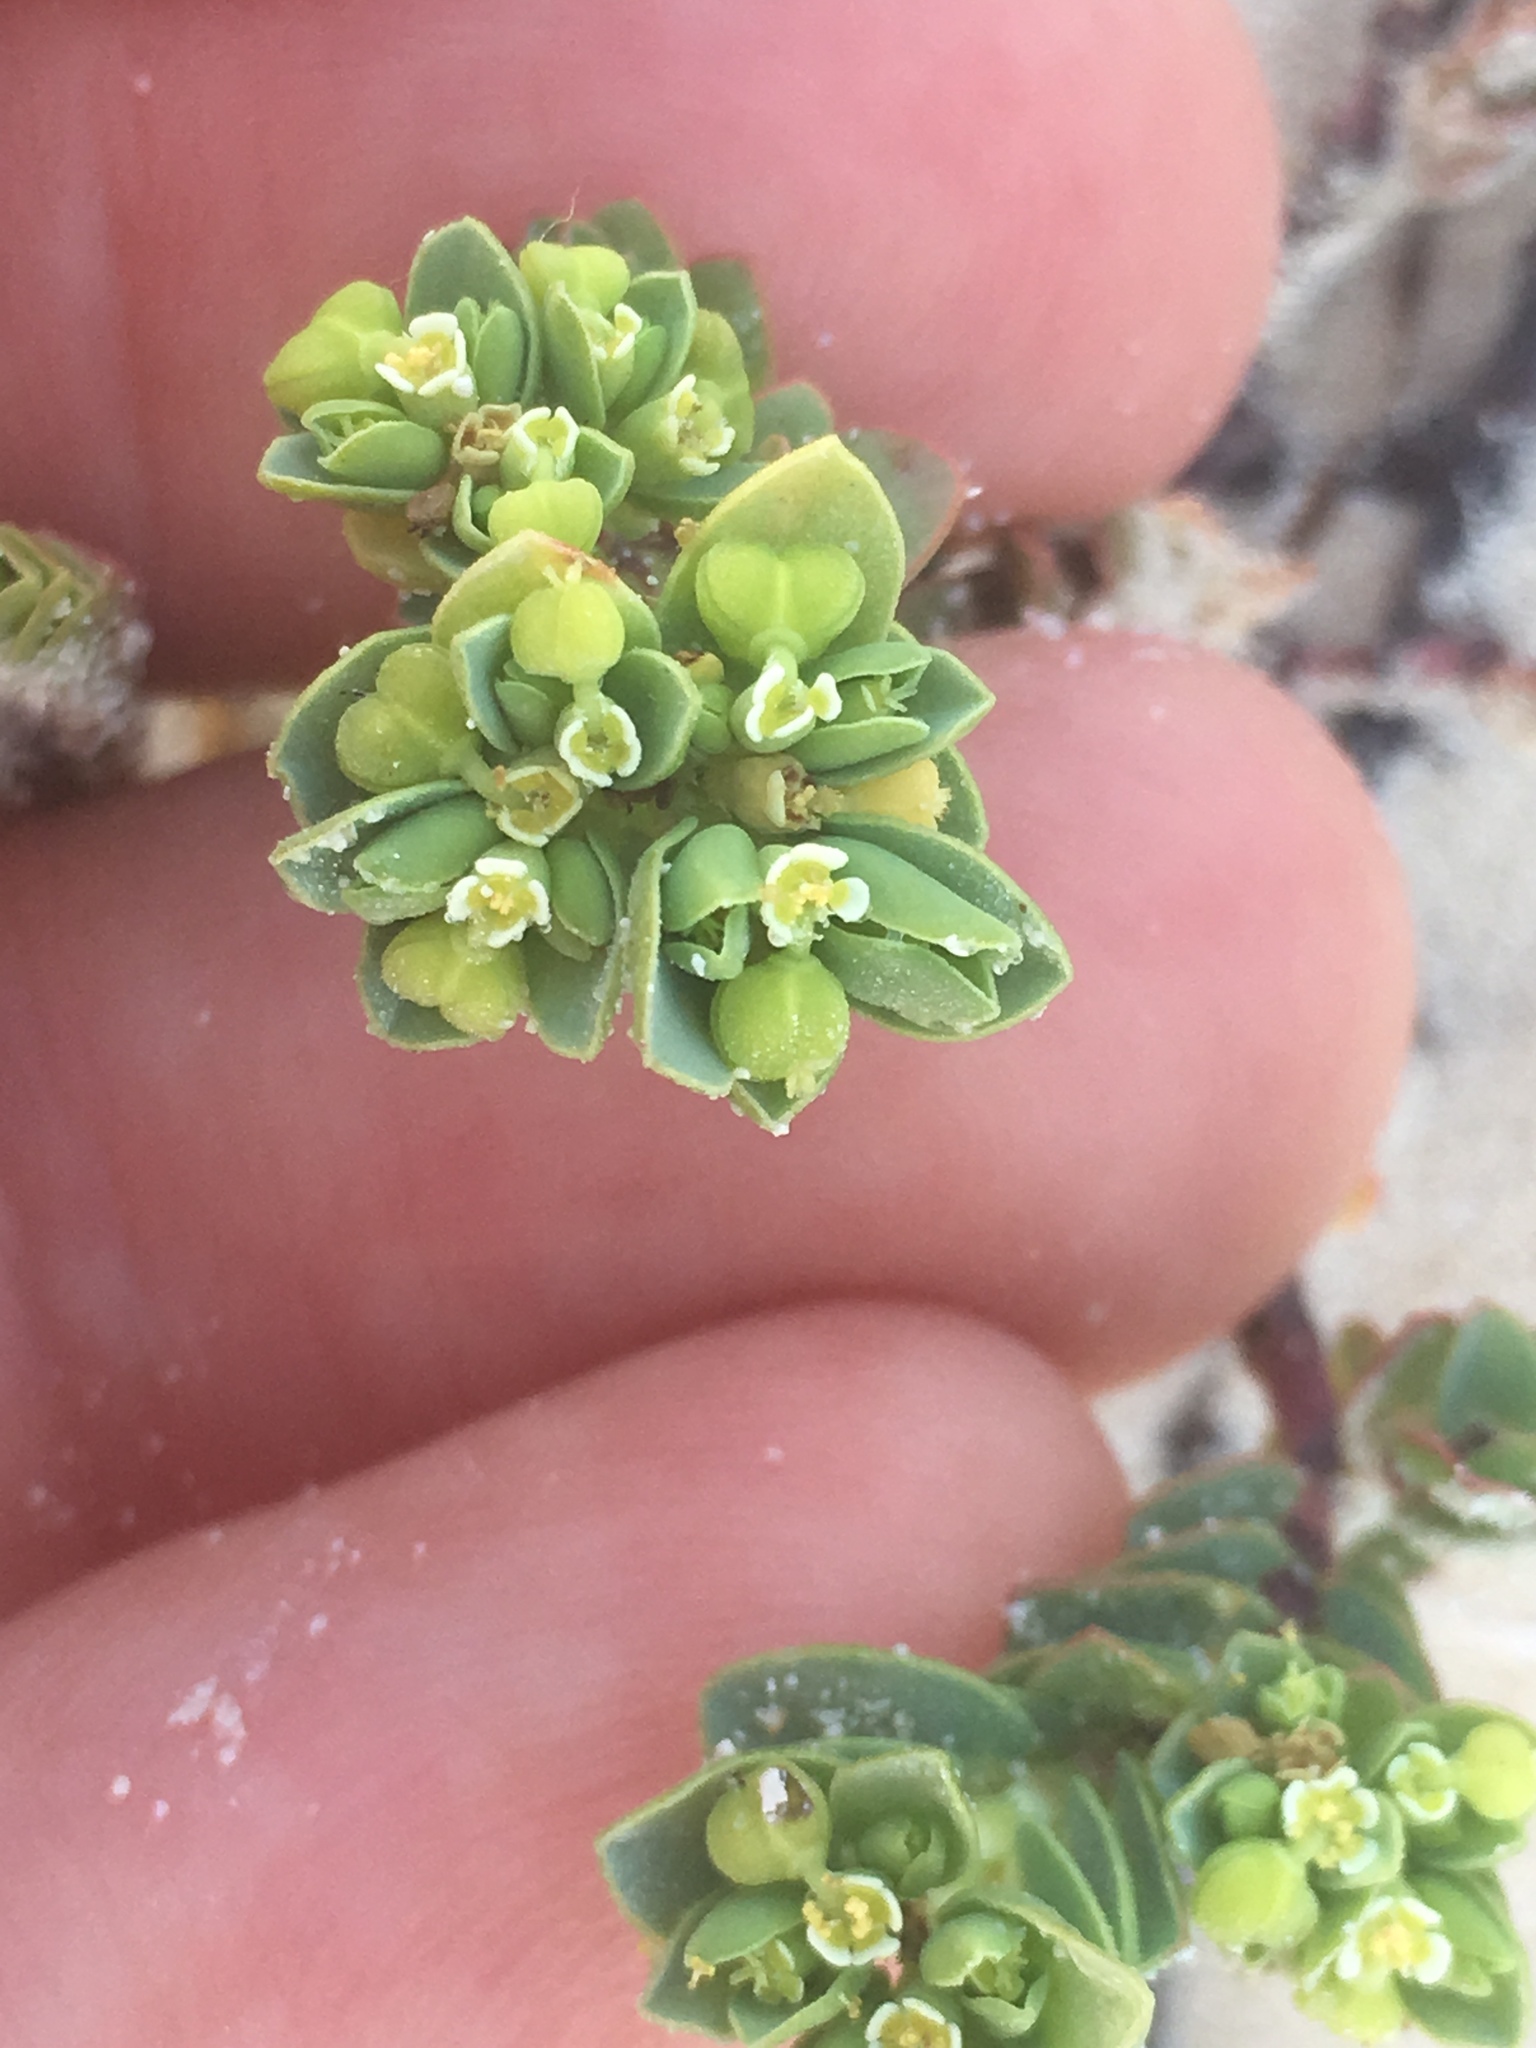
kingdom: Plantae
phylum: Tracheophyta
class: Magnoliopsida
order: Malpighiales
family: Euphorbiaceae
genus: Euphorbia
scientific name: Euphorbia mesembryanthemifolia
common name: Coastal beach sandmat
